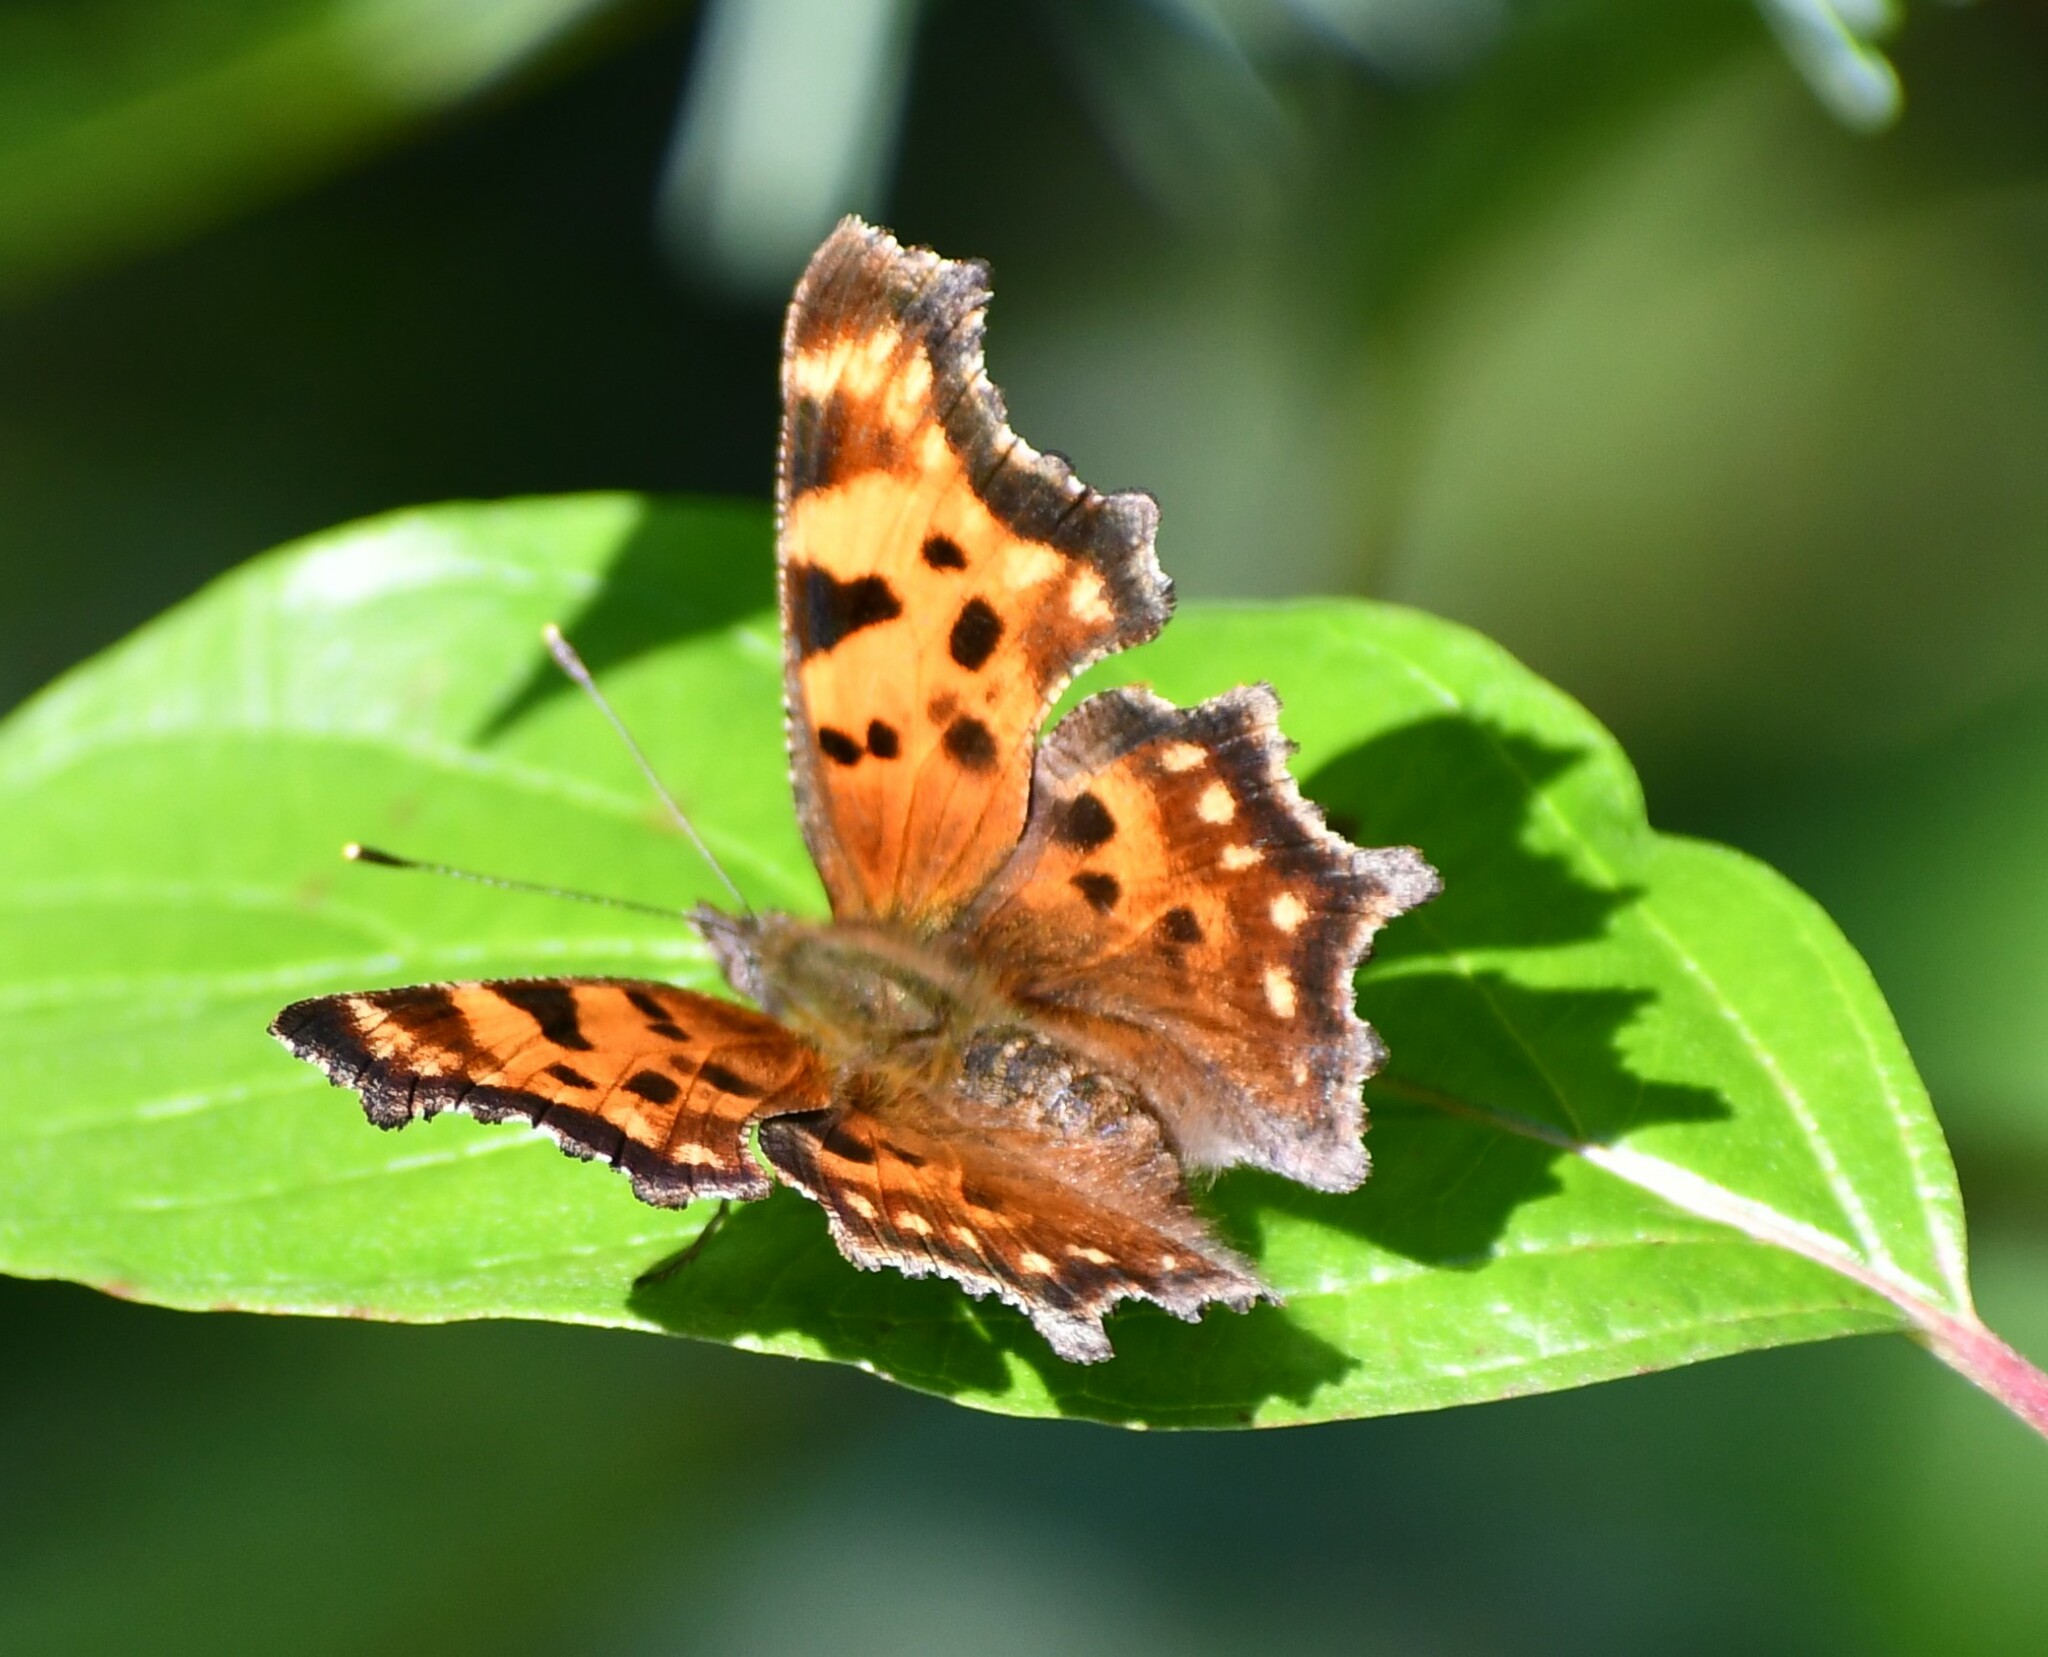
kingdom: Animalia
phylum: Arthropoda
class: Insecta
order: Lepidoptera
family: Nymphalidae
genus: Polygonia
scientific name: Polygonia faunus
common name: Green comma
